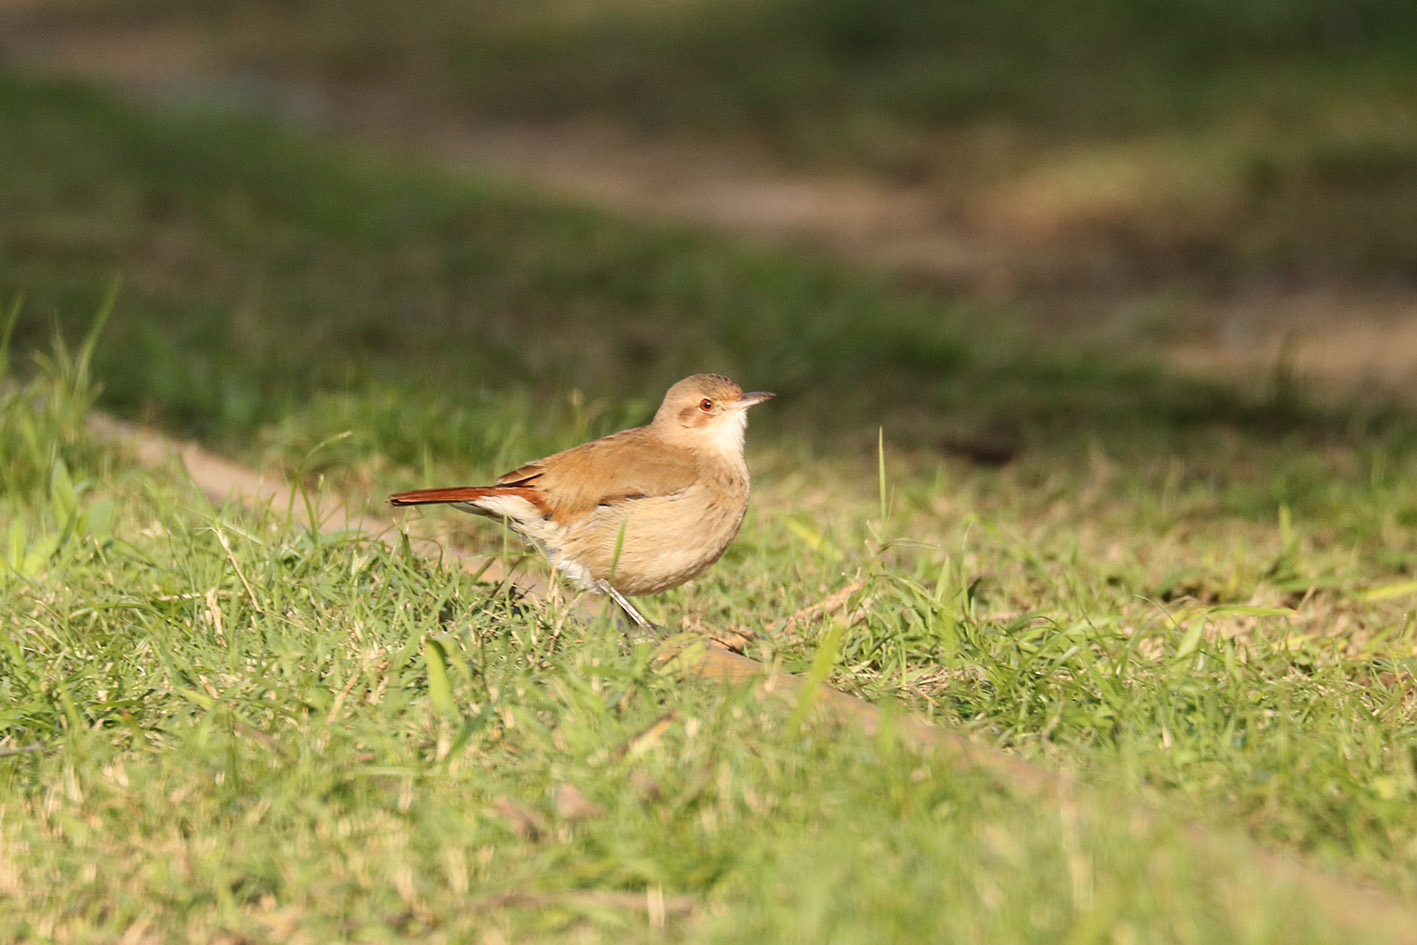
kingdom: Animalia
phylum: Chordata
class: Aves
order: Passeriformes
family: Furnariidae
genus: Furnarius
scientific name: Furnarius rufus
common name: Rufous hornero
